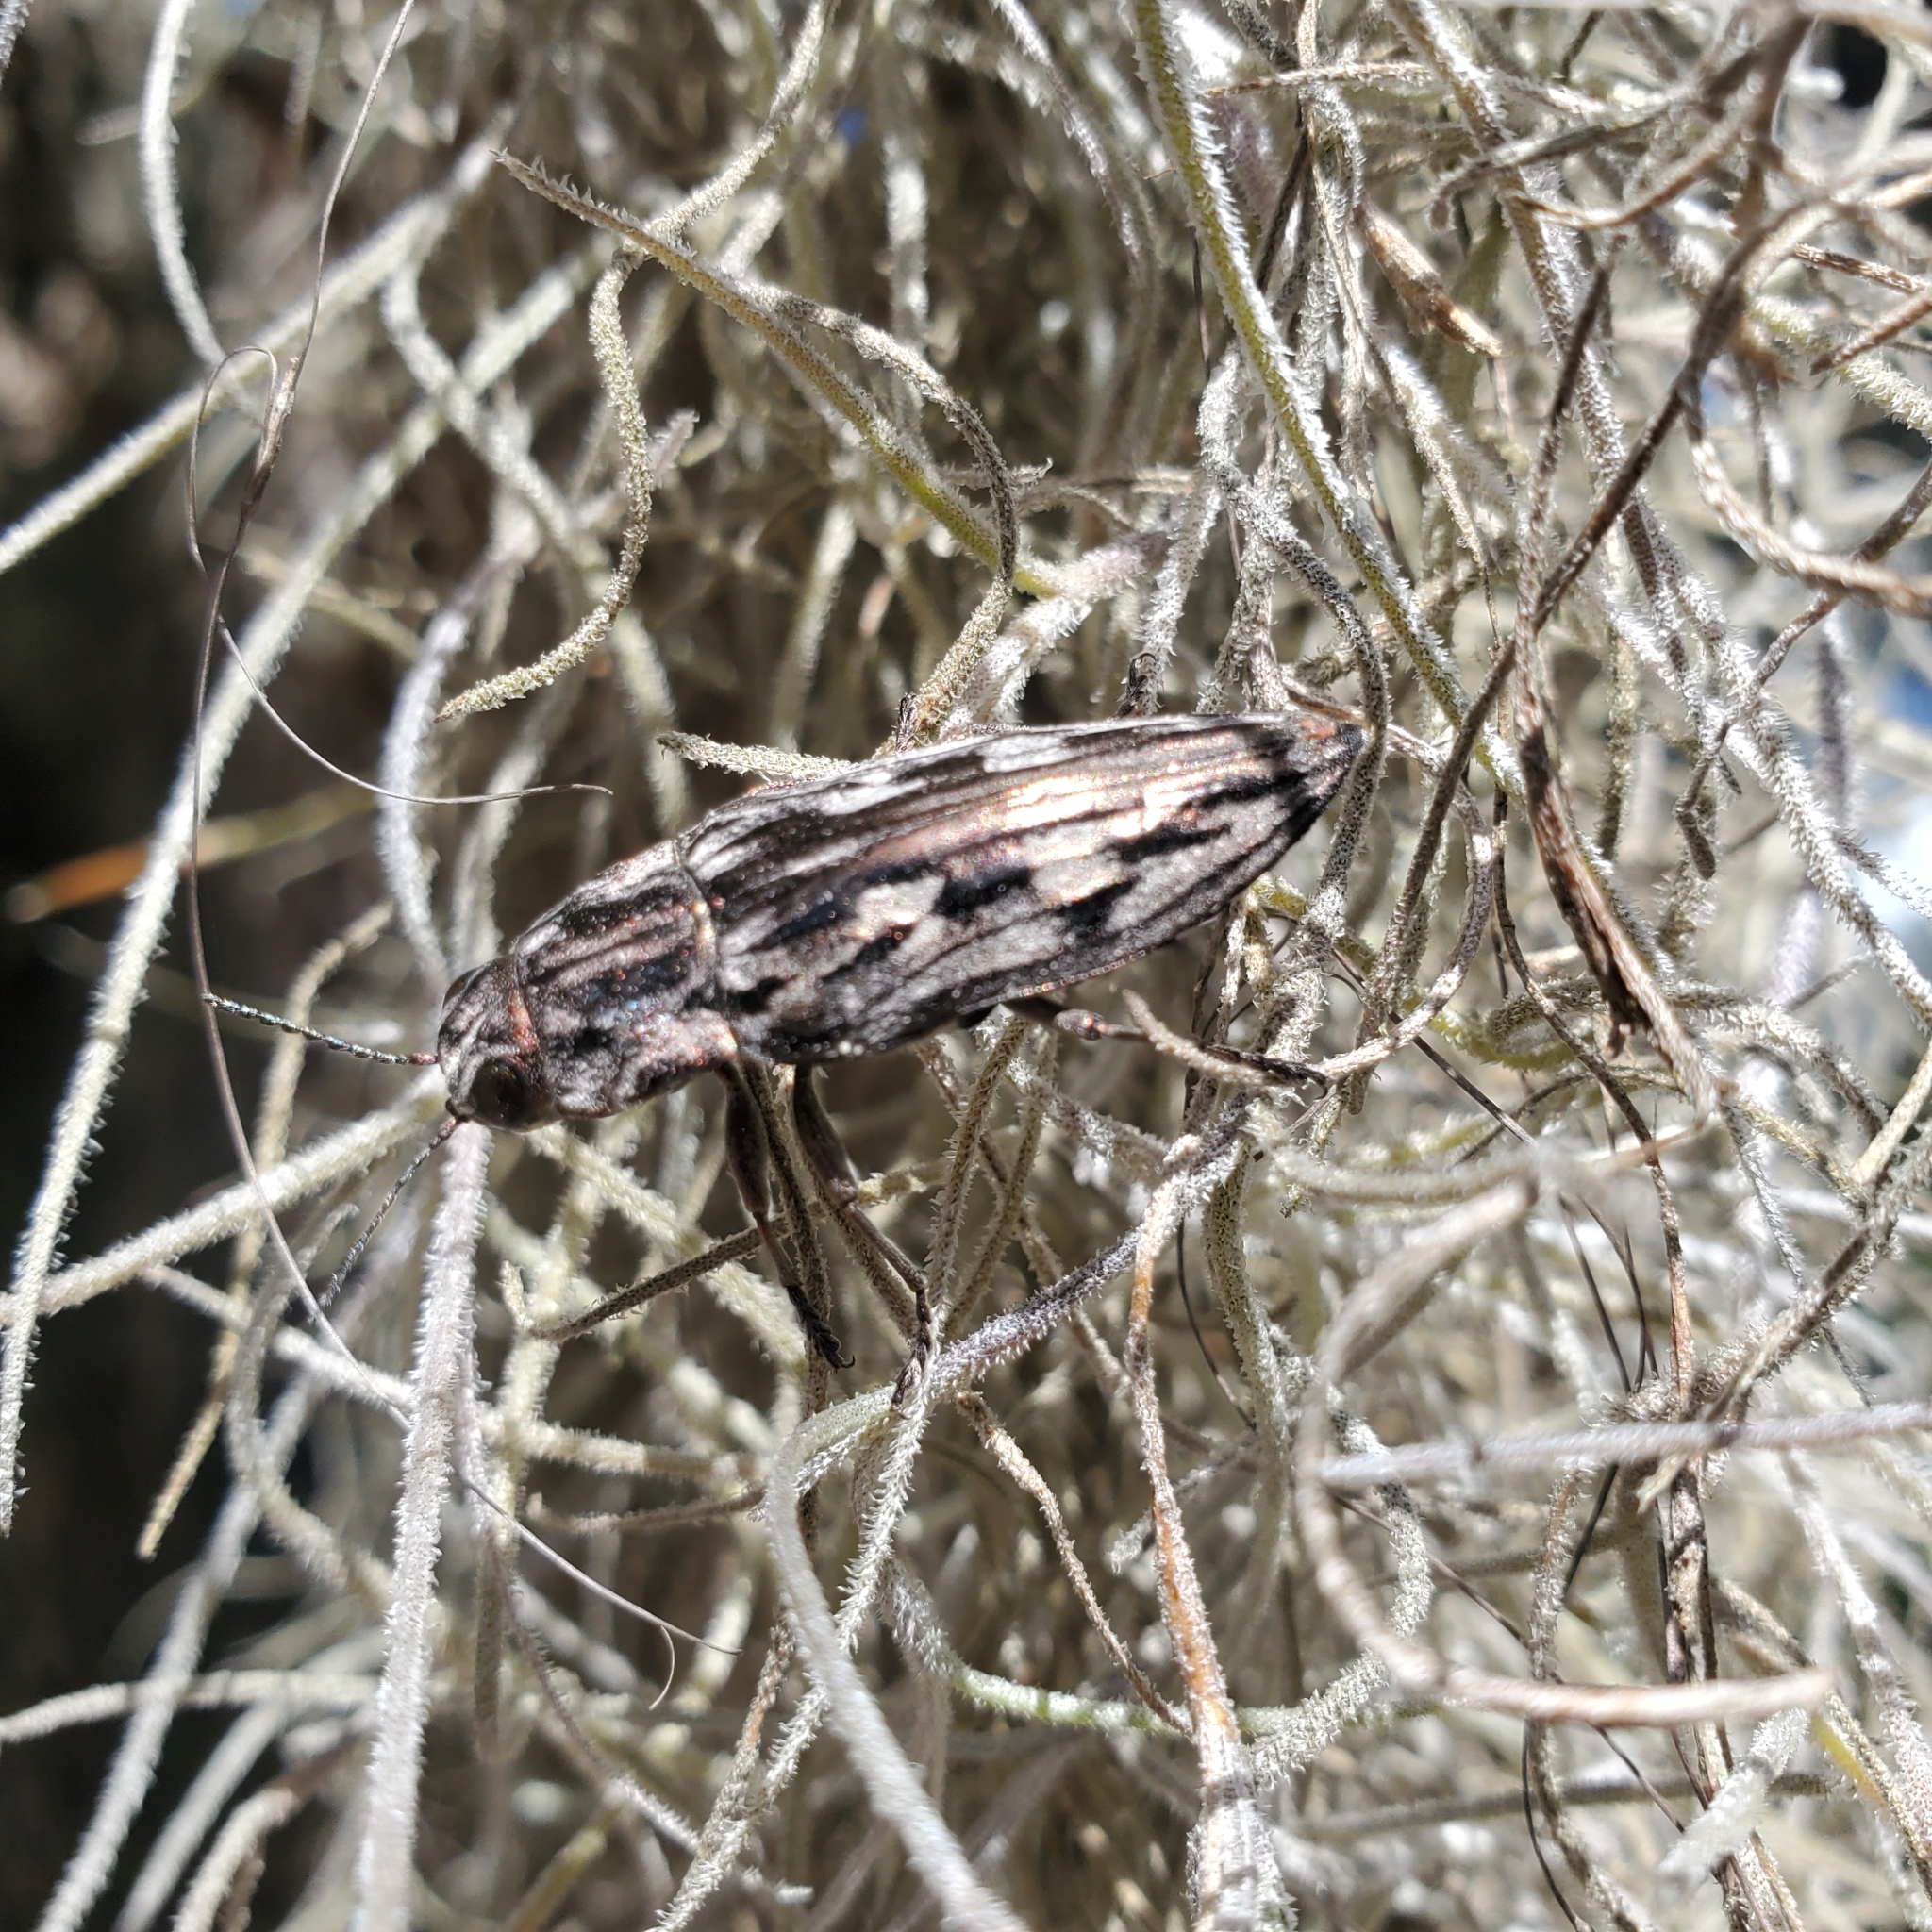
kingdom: Animalia
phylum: Arthropoda
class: Insecta
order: Coleoptera
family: Buprestidae
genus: Chalcophora
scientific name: Chalcophora virginiensis
